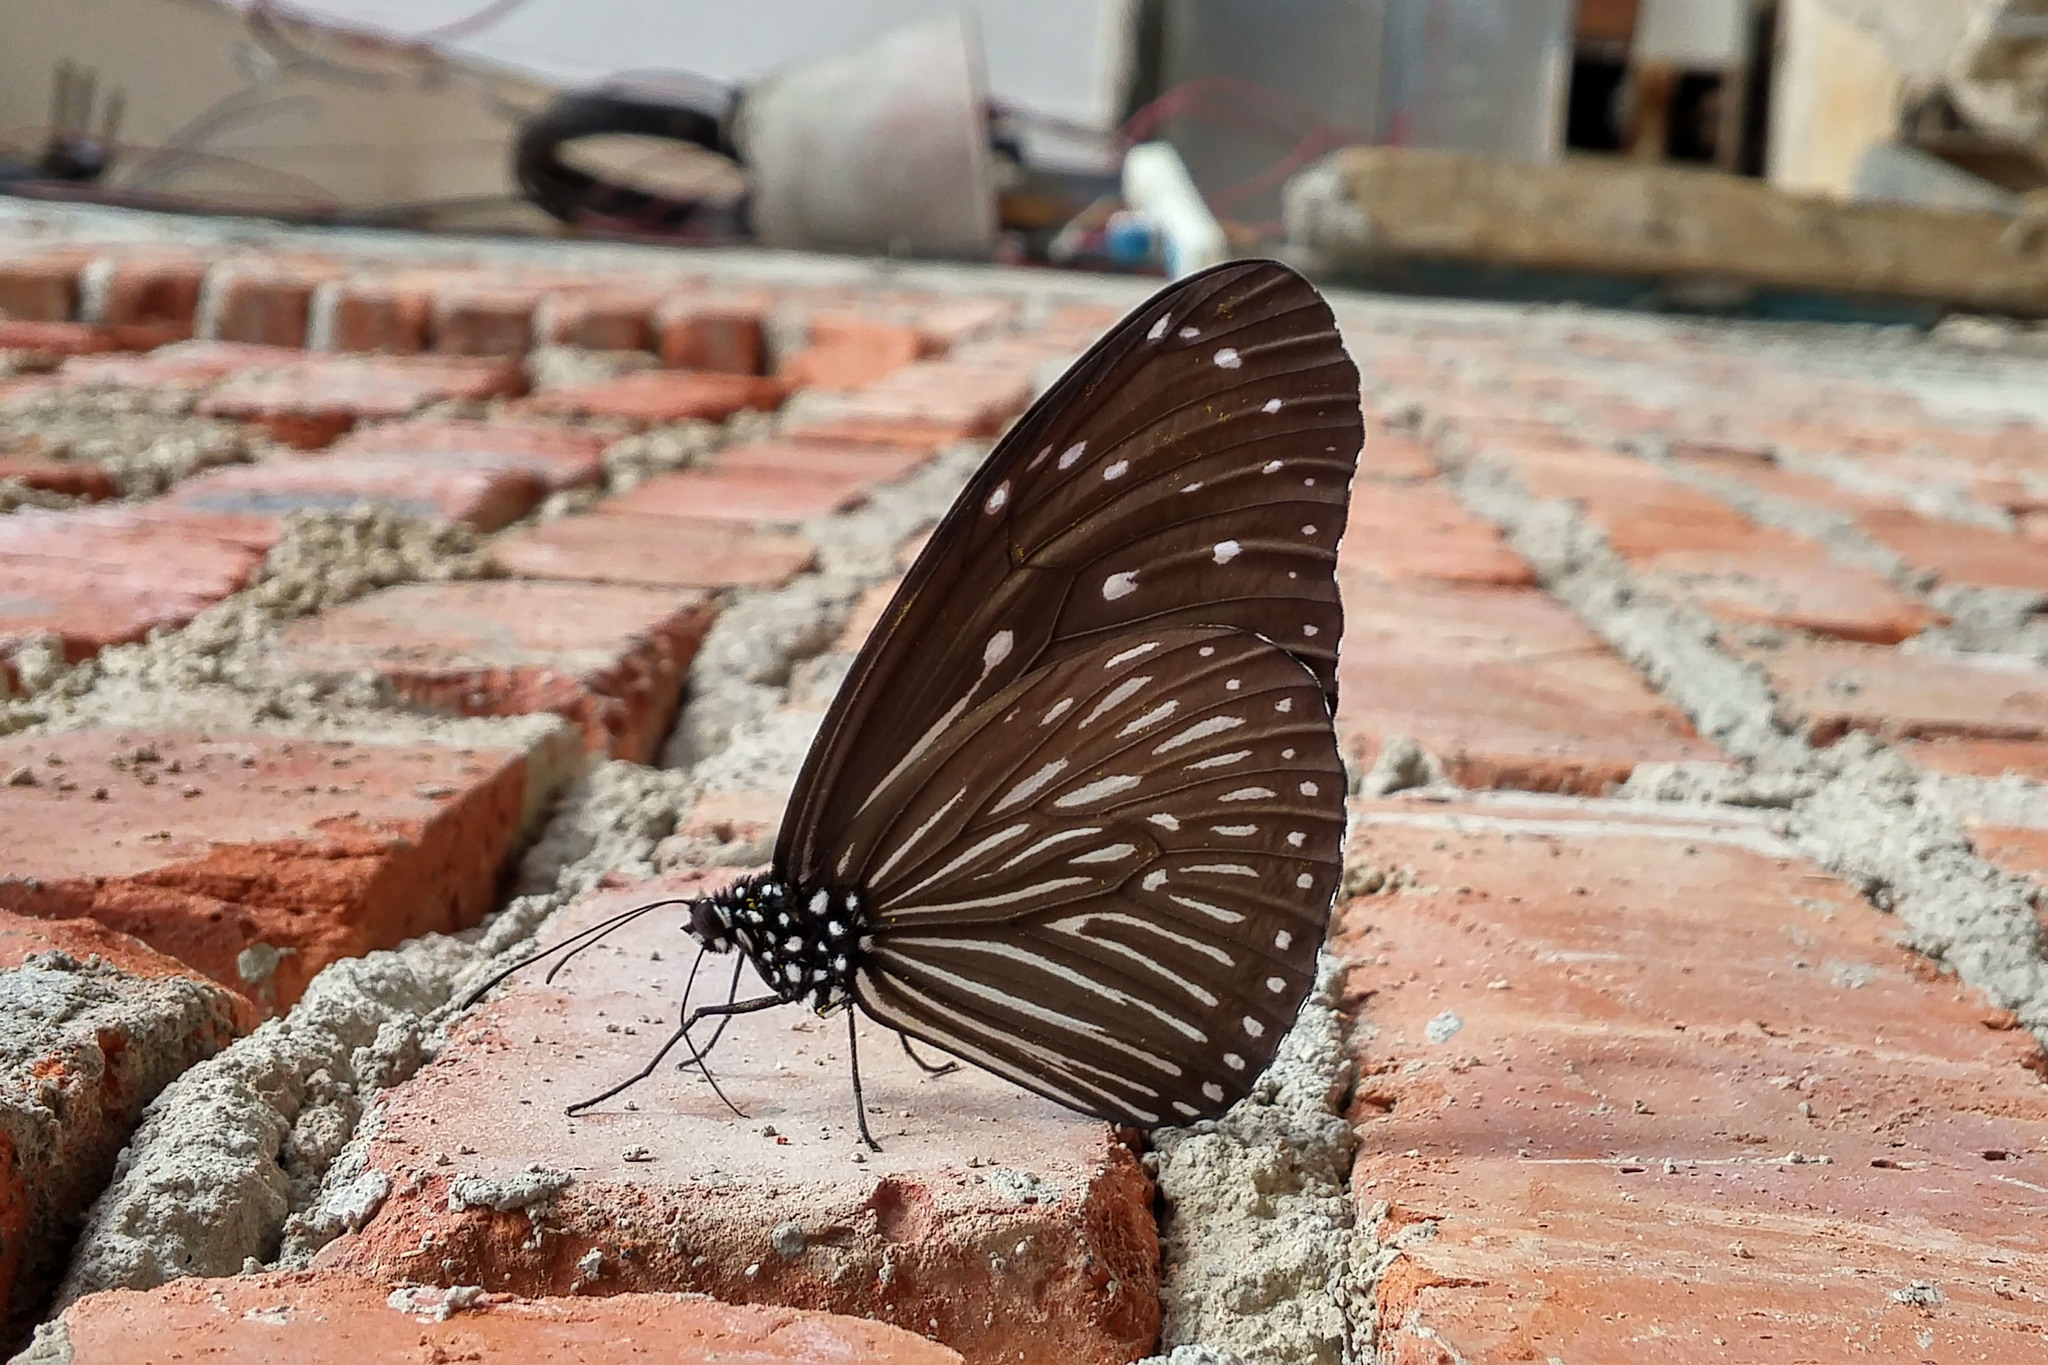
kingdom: Animalia
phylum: Arthropoda
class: Insecta
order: Lepidoptera
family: Nymphalidae
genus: Euploea
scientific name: Euploea mulciber
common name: Striped blue crow butterfly
